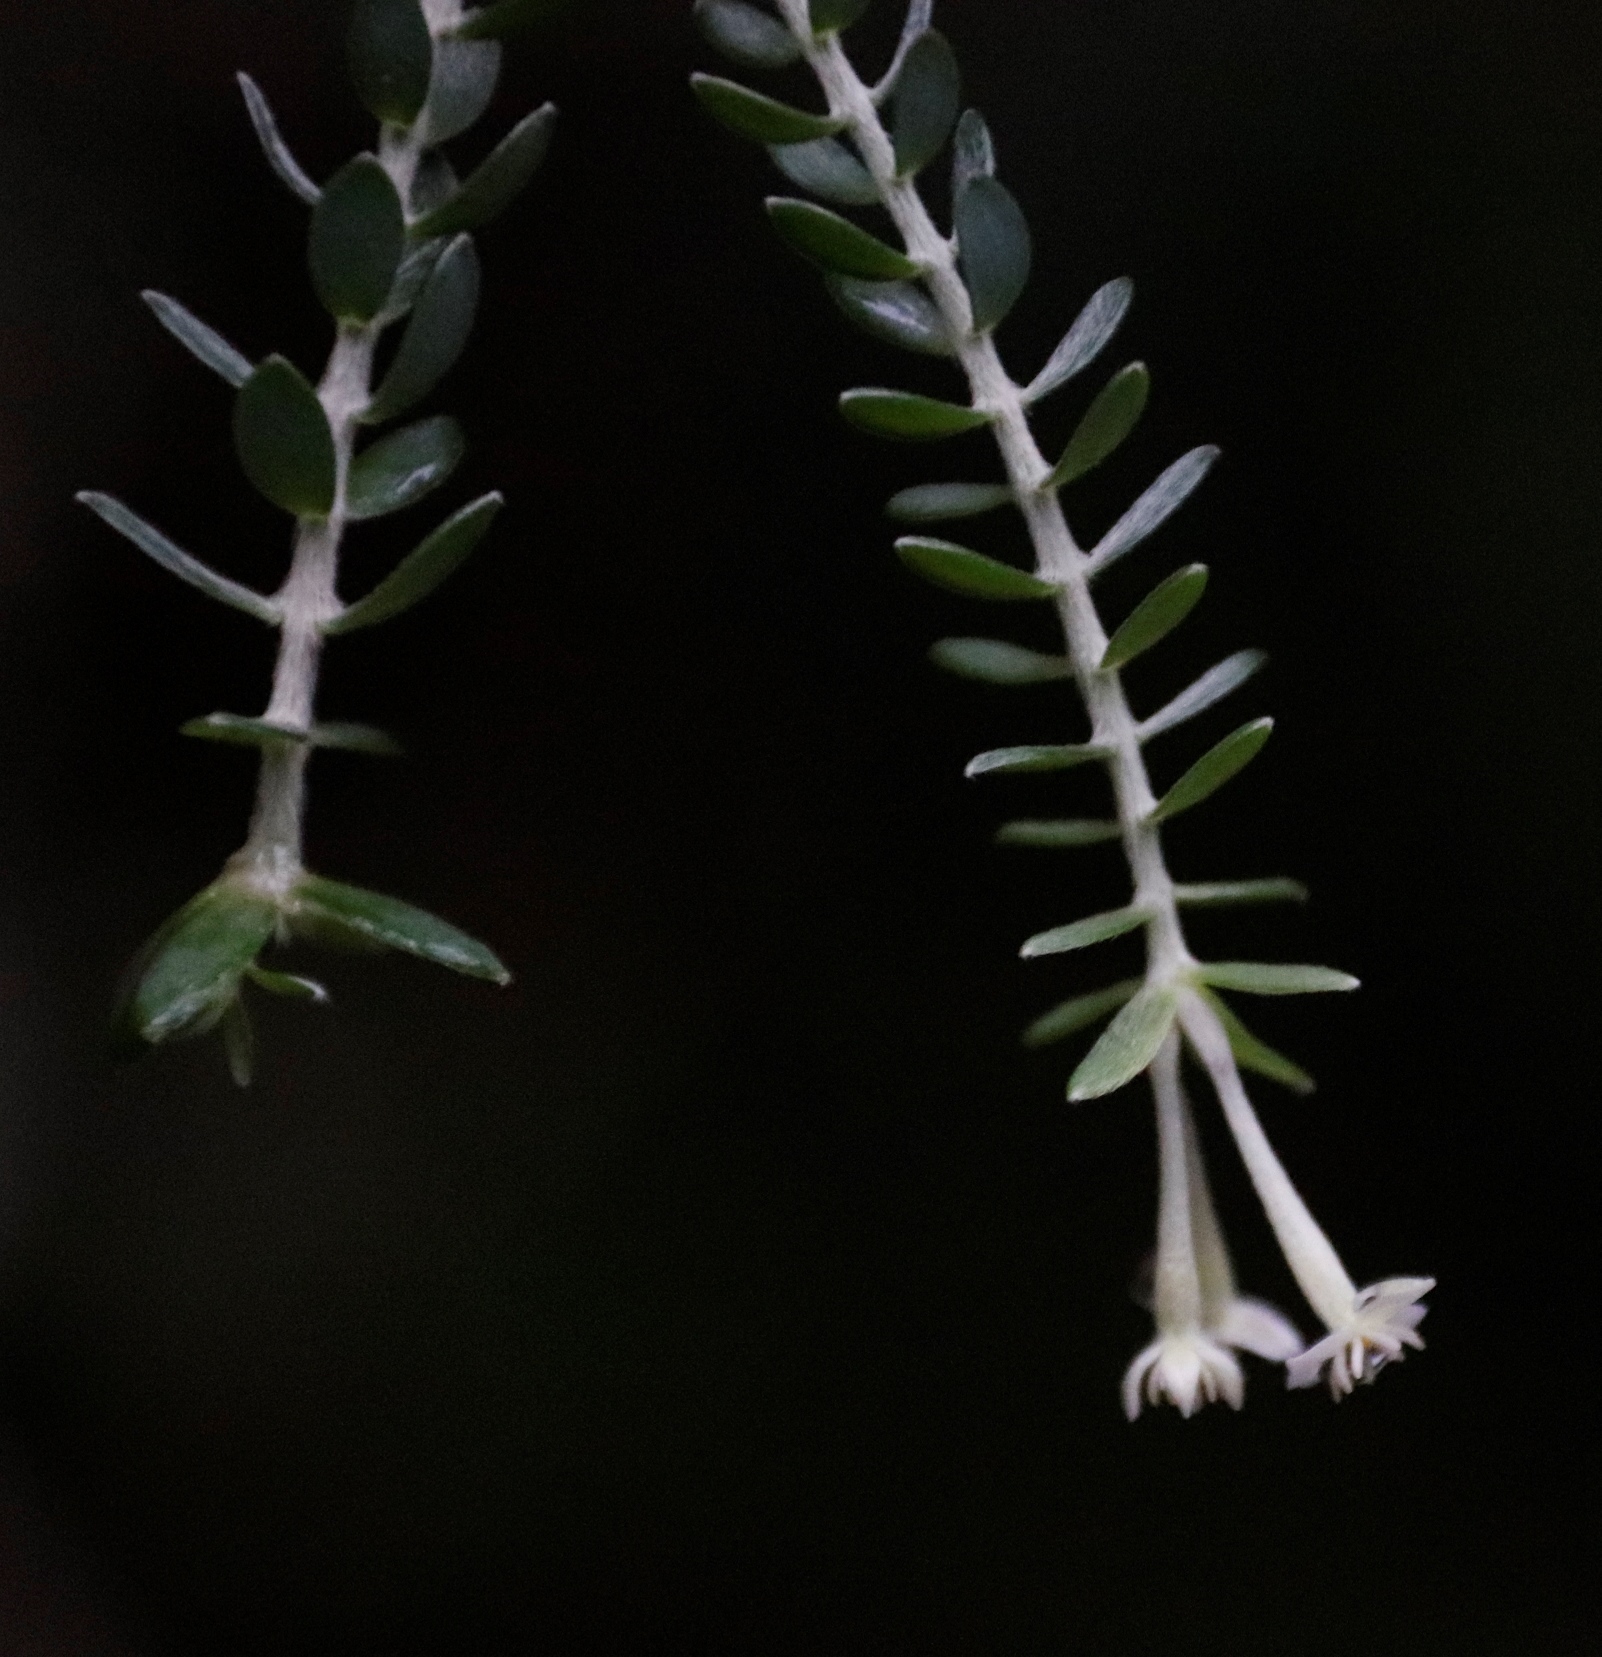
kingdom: Plantae
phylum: Tracheophyta
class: Magnoliopsida
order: Malvales
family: Thymelaeaceae
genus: Gnidia
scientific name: Gnidia sericea
